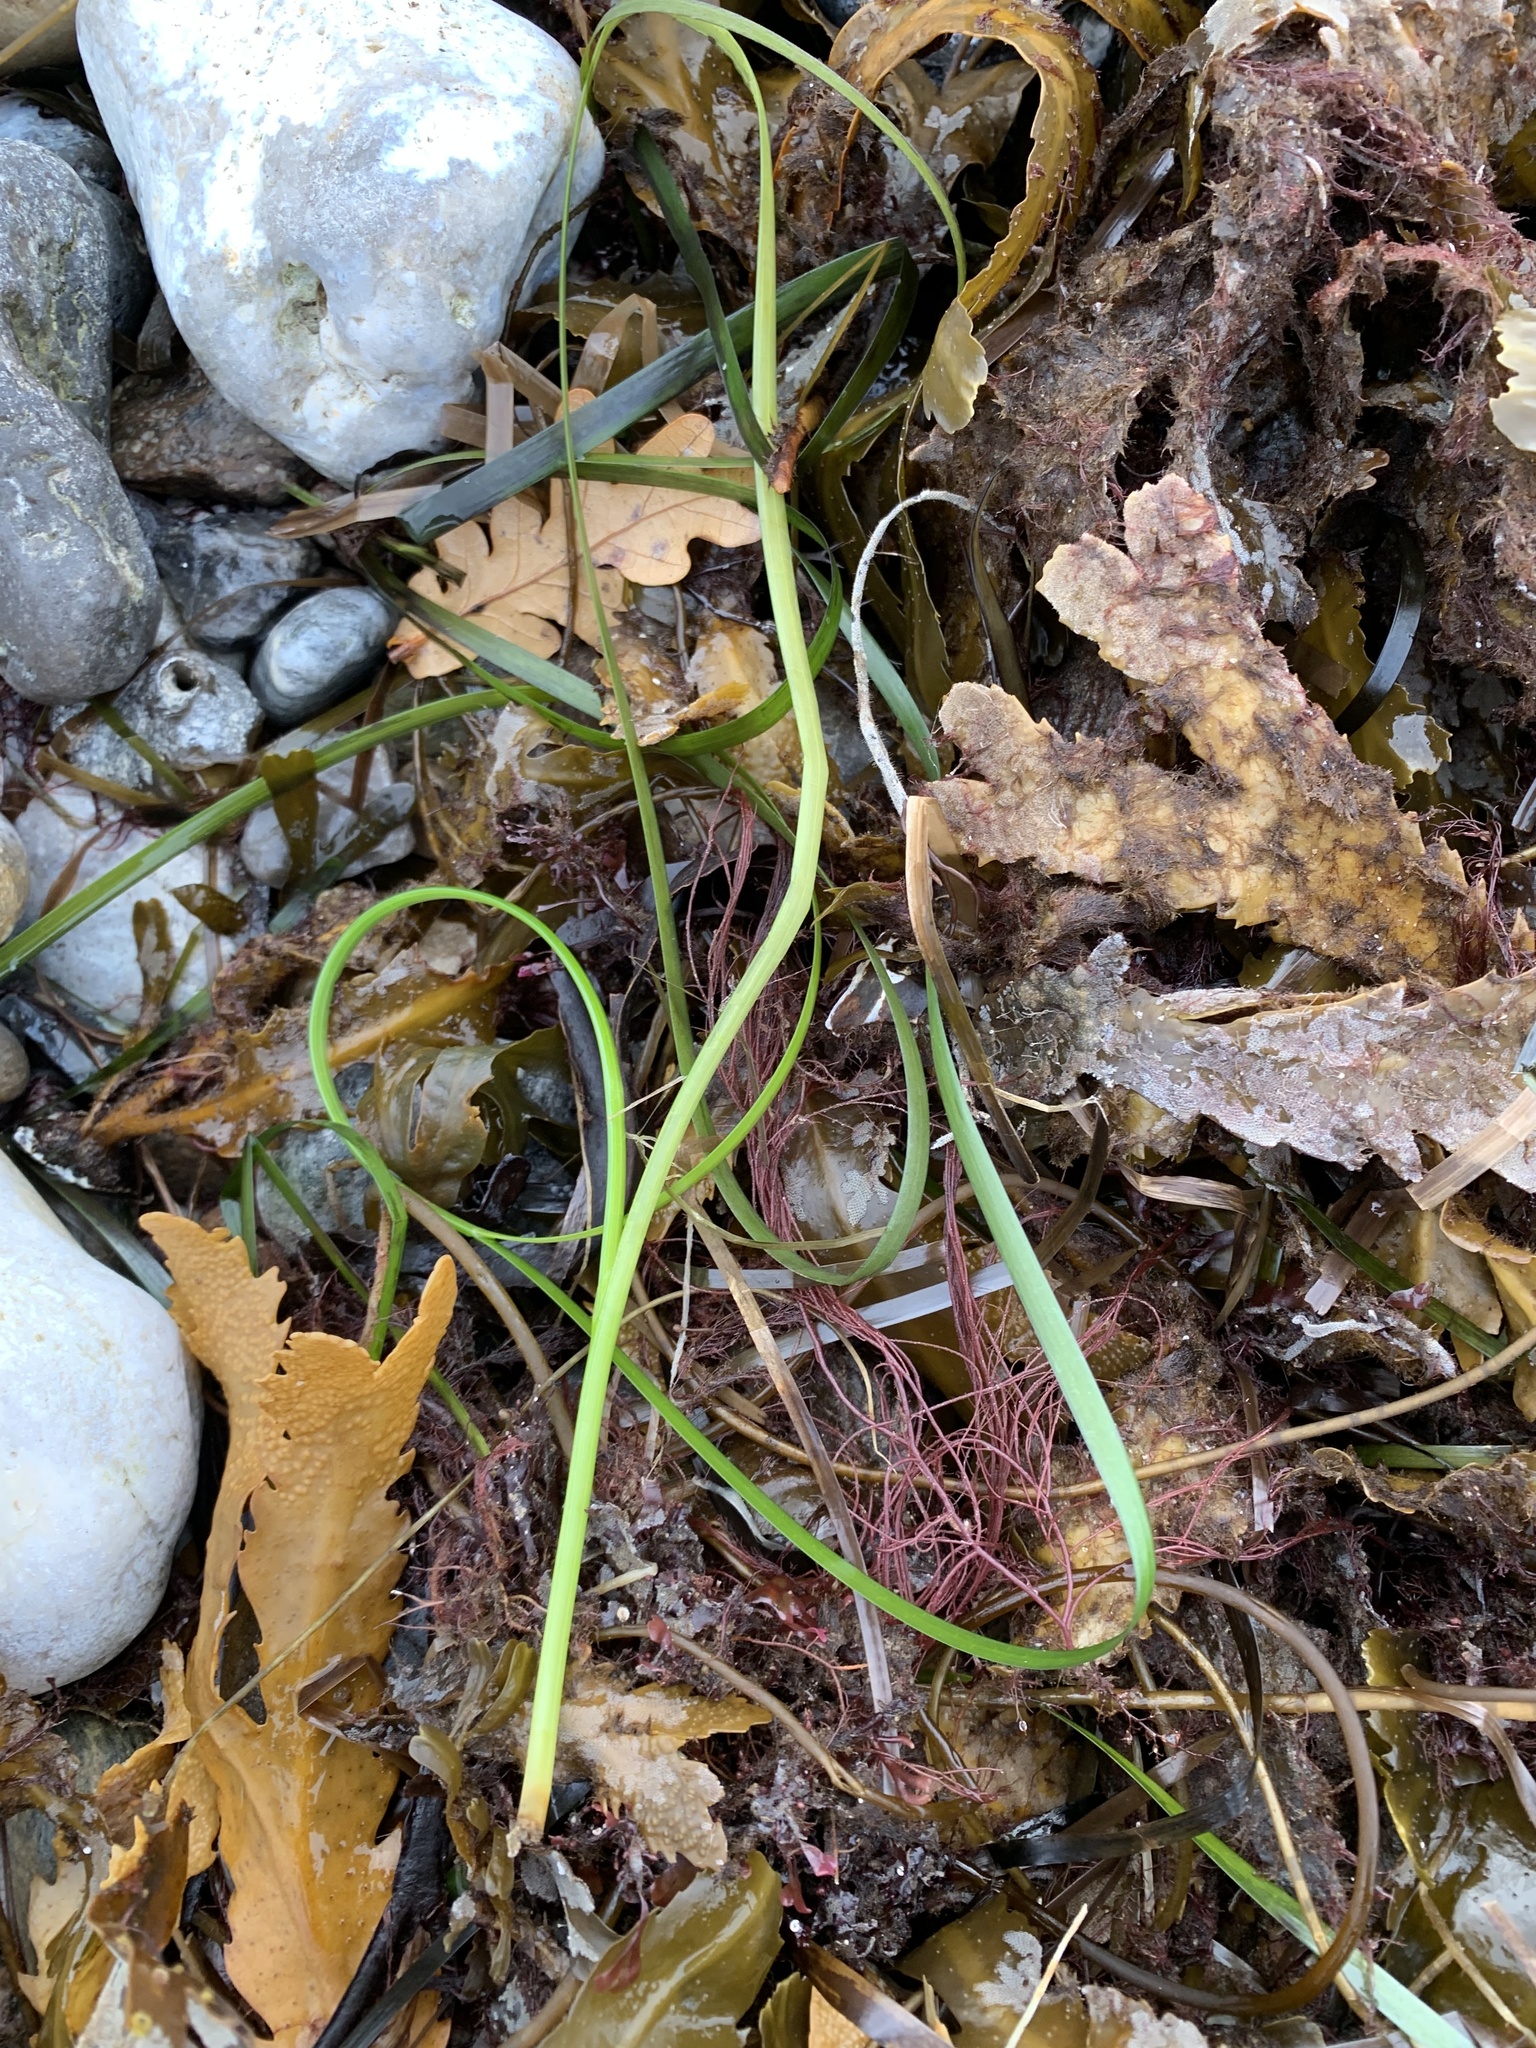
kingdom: Plantae
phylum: Tracheophyta
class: Liliopsida
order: Alismatales
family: Zosteraceae
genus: Zostera
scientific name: Zostera marina
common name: Eelgrass
